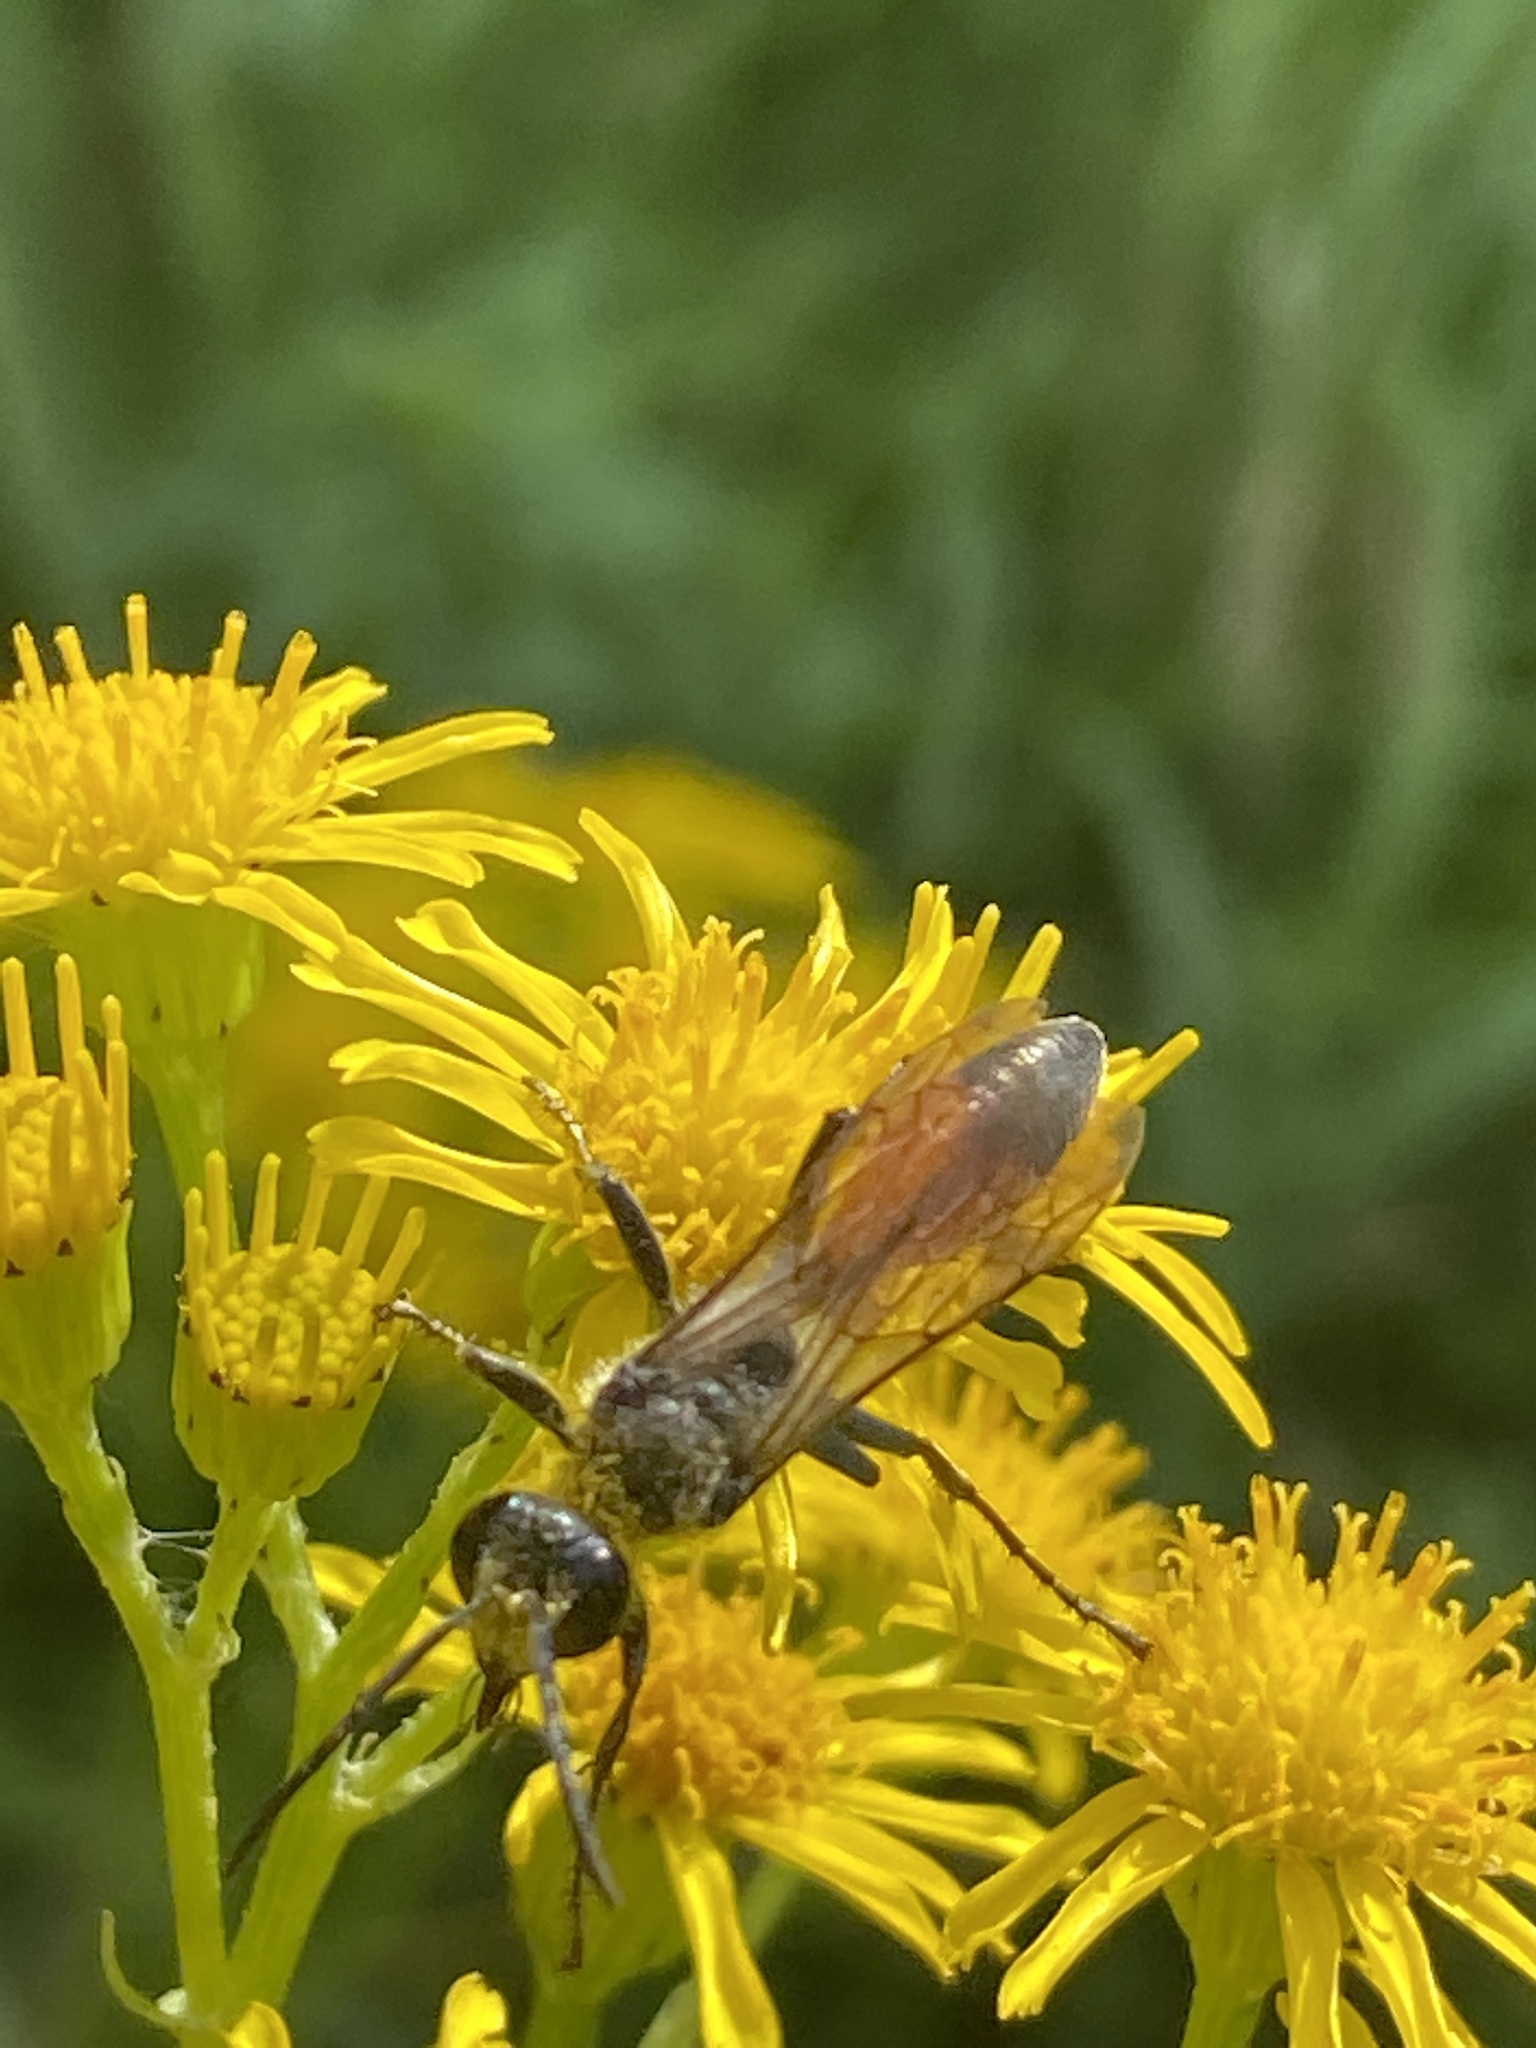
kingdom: Animalia
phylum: Arthropoda
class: Insecta
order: Hymenoptera
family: Sphecidae
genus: Sphex
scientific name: Sphex funerarius
